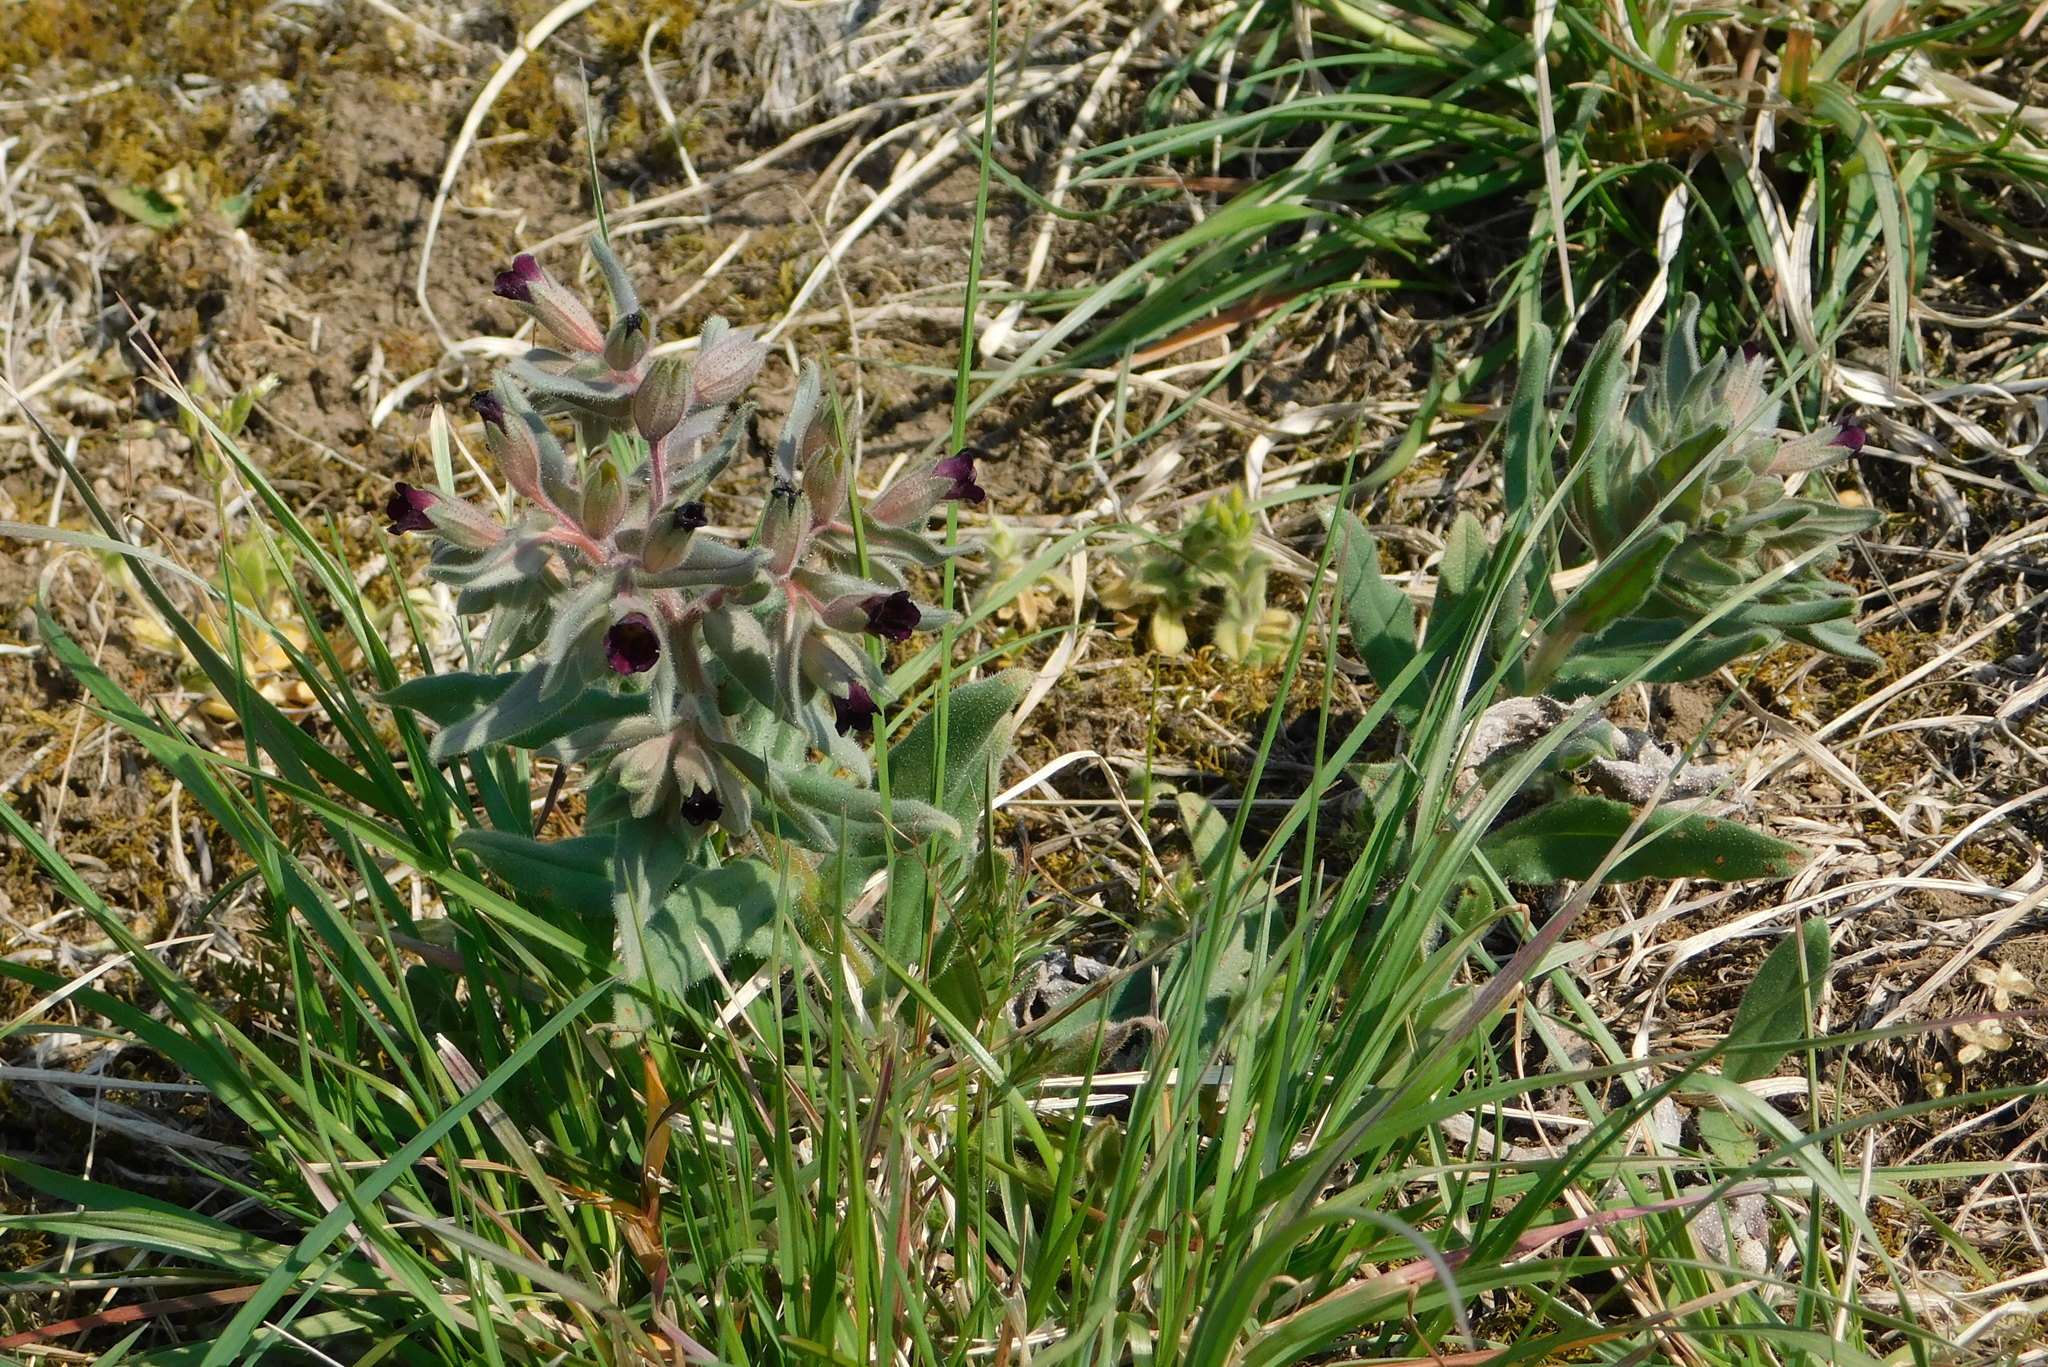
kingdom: Plantae
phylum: Tracheophyta
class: Magnoliopsida
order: Boraginales
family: Boraginaceae
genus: Nonea
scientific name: Nonea pulla
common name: Brown nonea
